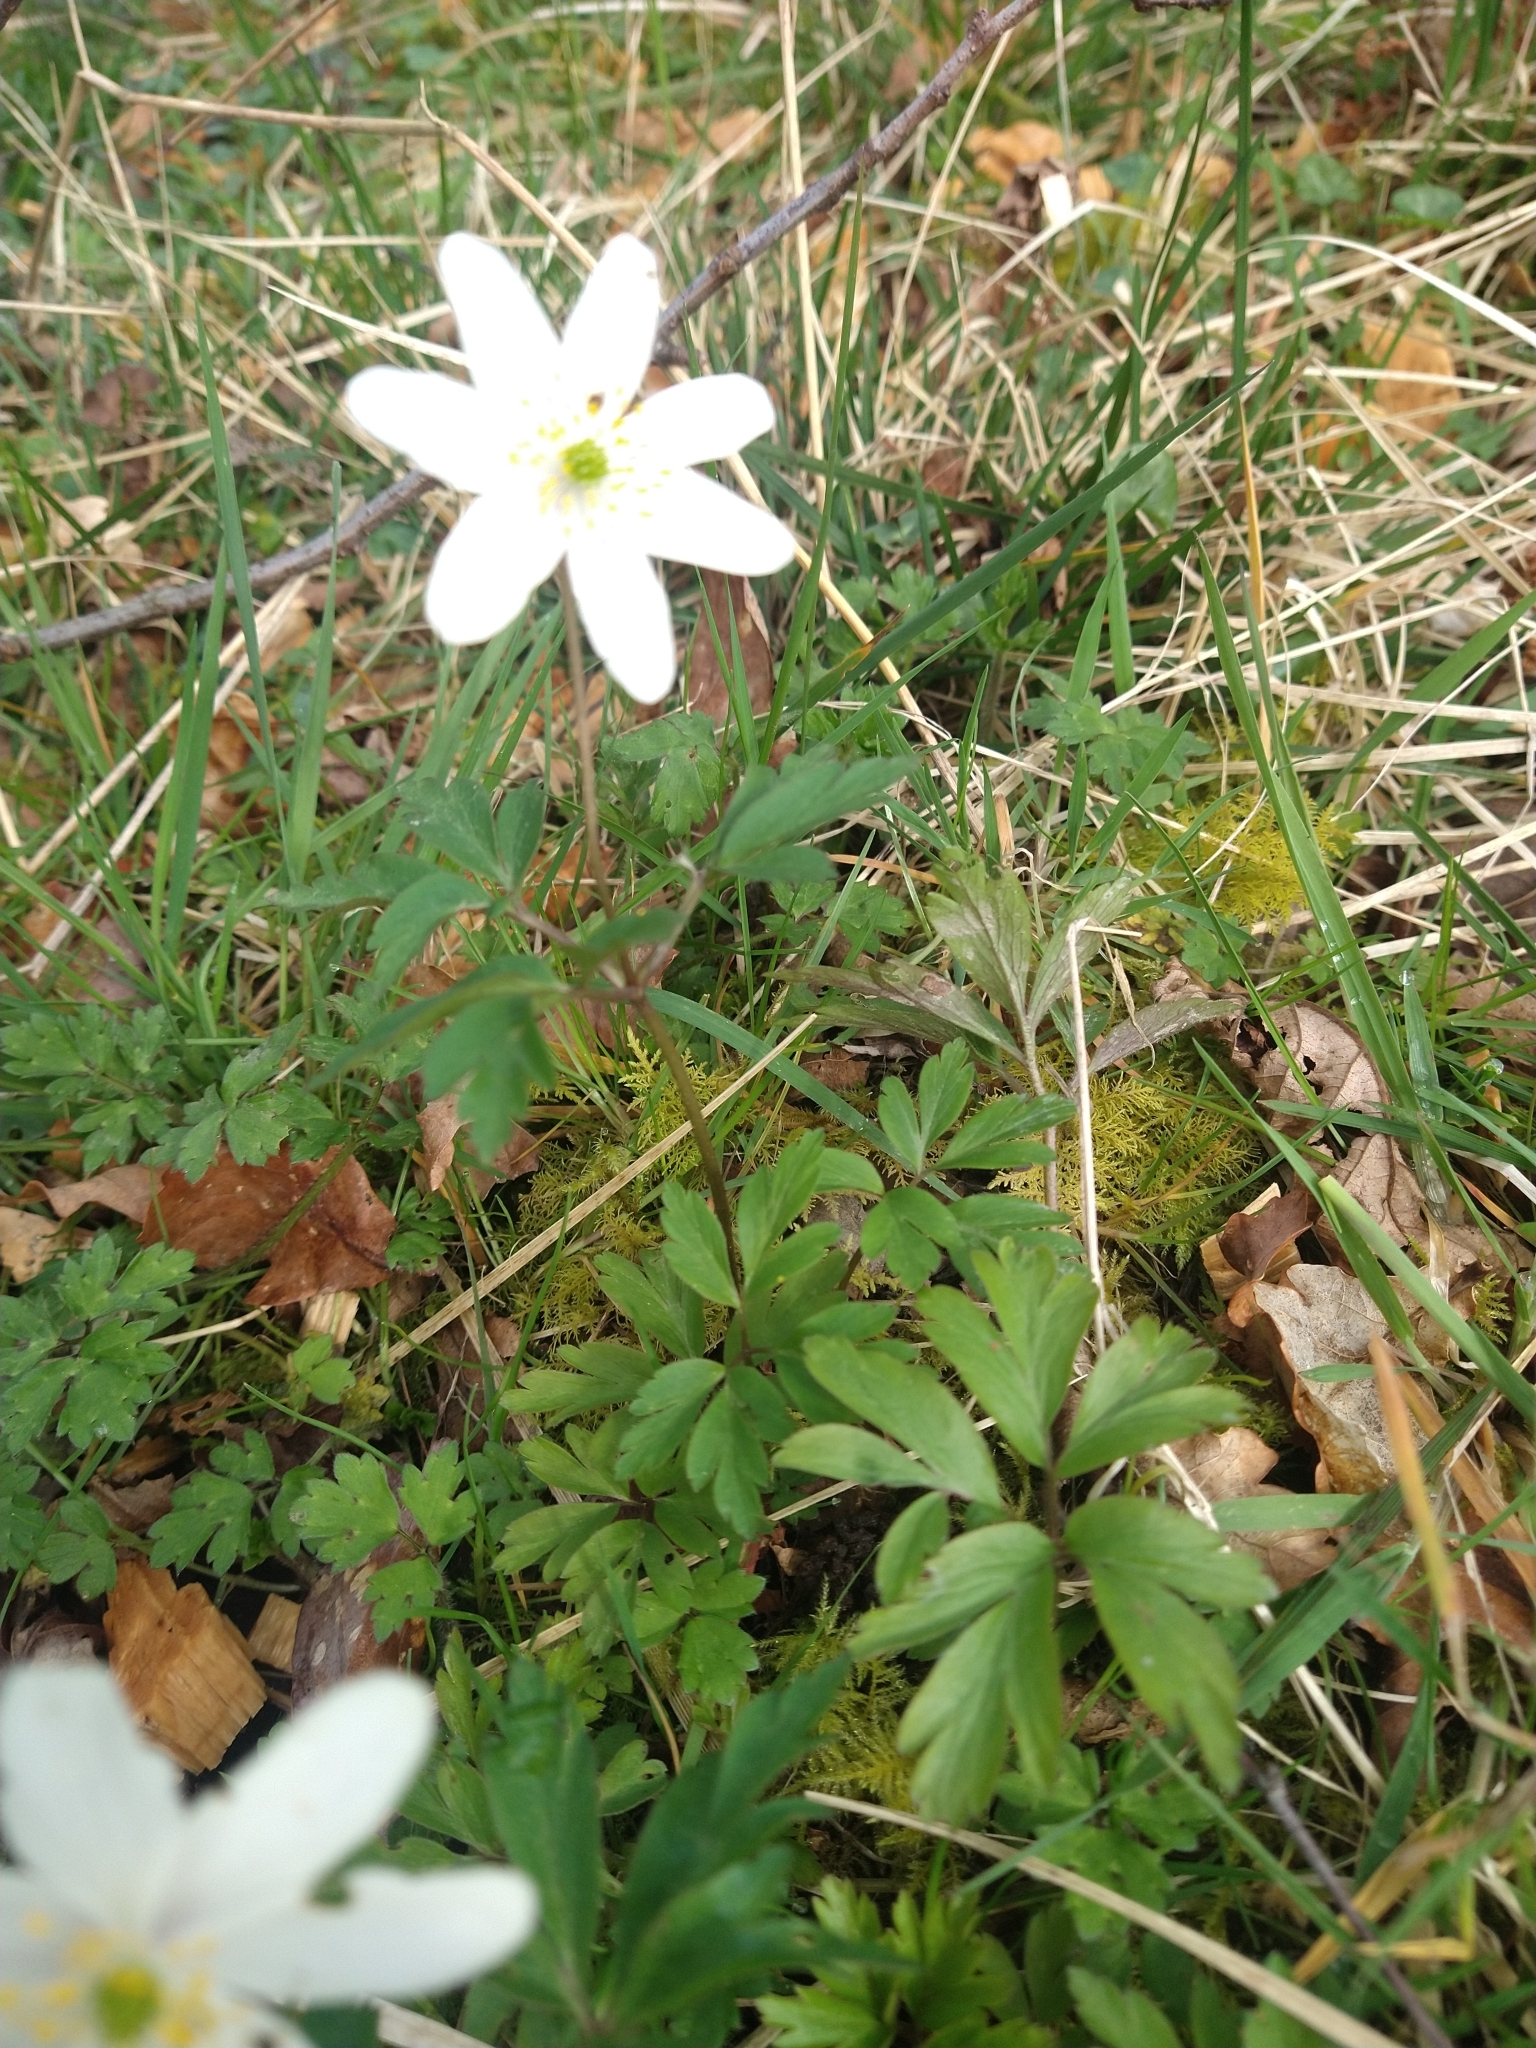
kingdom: Plantae
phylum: Tracheophyta
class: Magnoliopsida
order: Ranunculales
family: Ranunculaceae
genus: Anemone
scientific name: Anemone nemorosa
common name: Wood anemone
